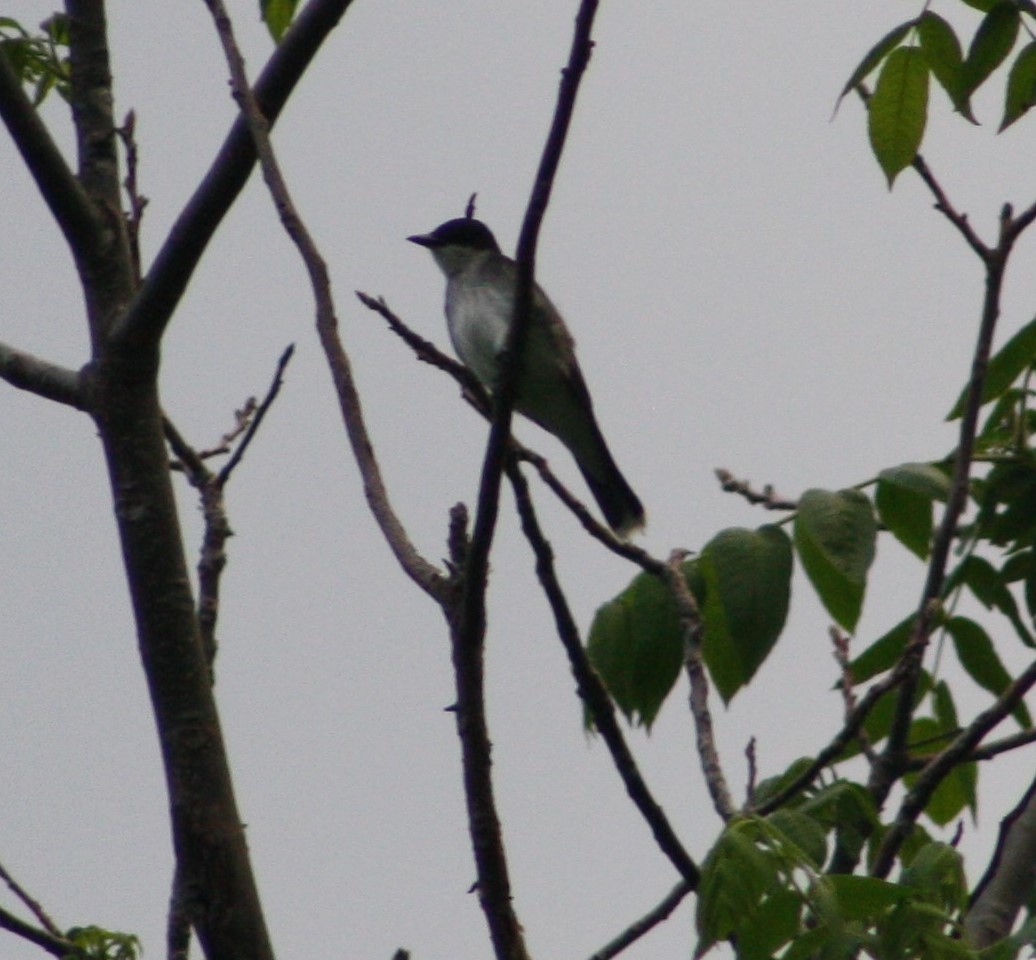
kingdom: Animalia
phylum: Chordata
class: Aves
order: Passeriformes
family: Tyrannidae
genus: Tyrannus
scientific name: Tyrannus tyrannus
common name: Eastern kingbird
